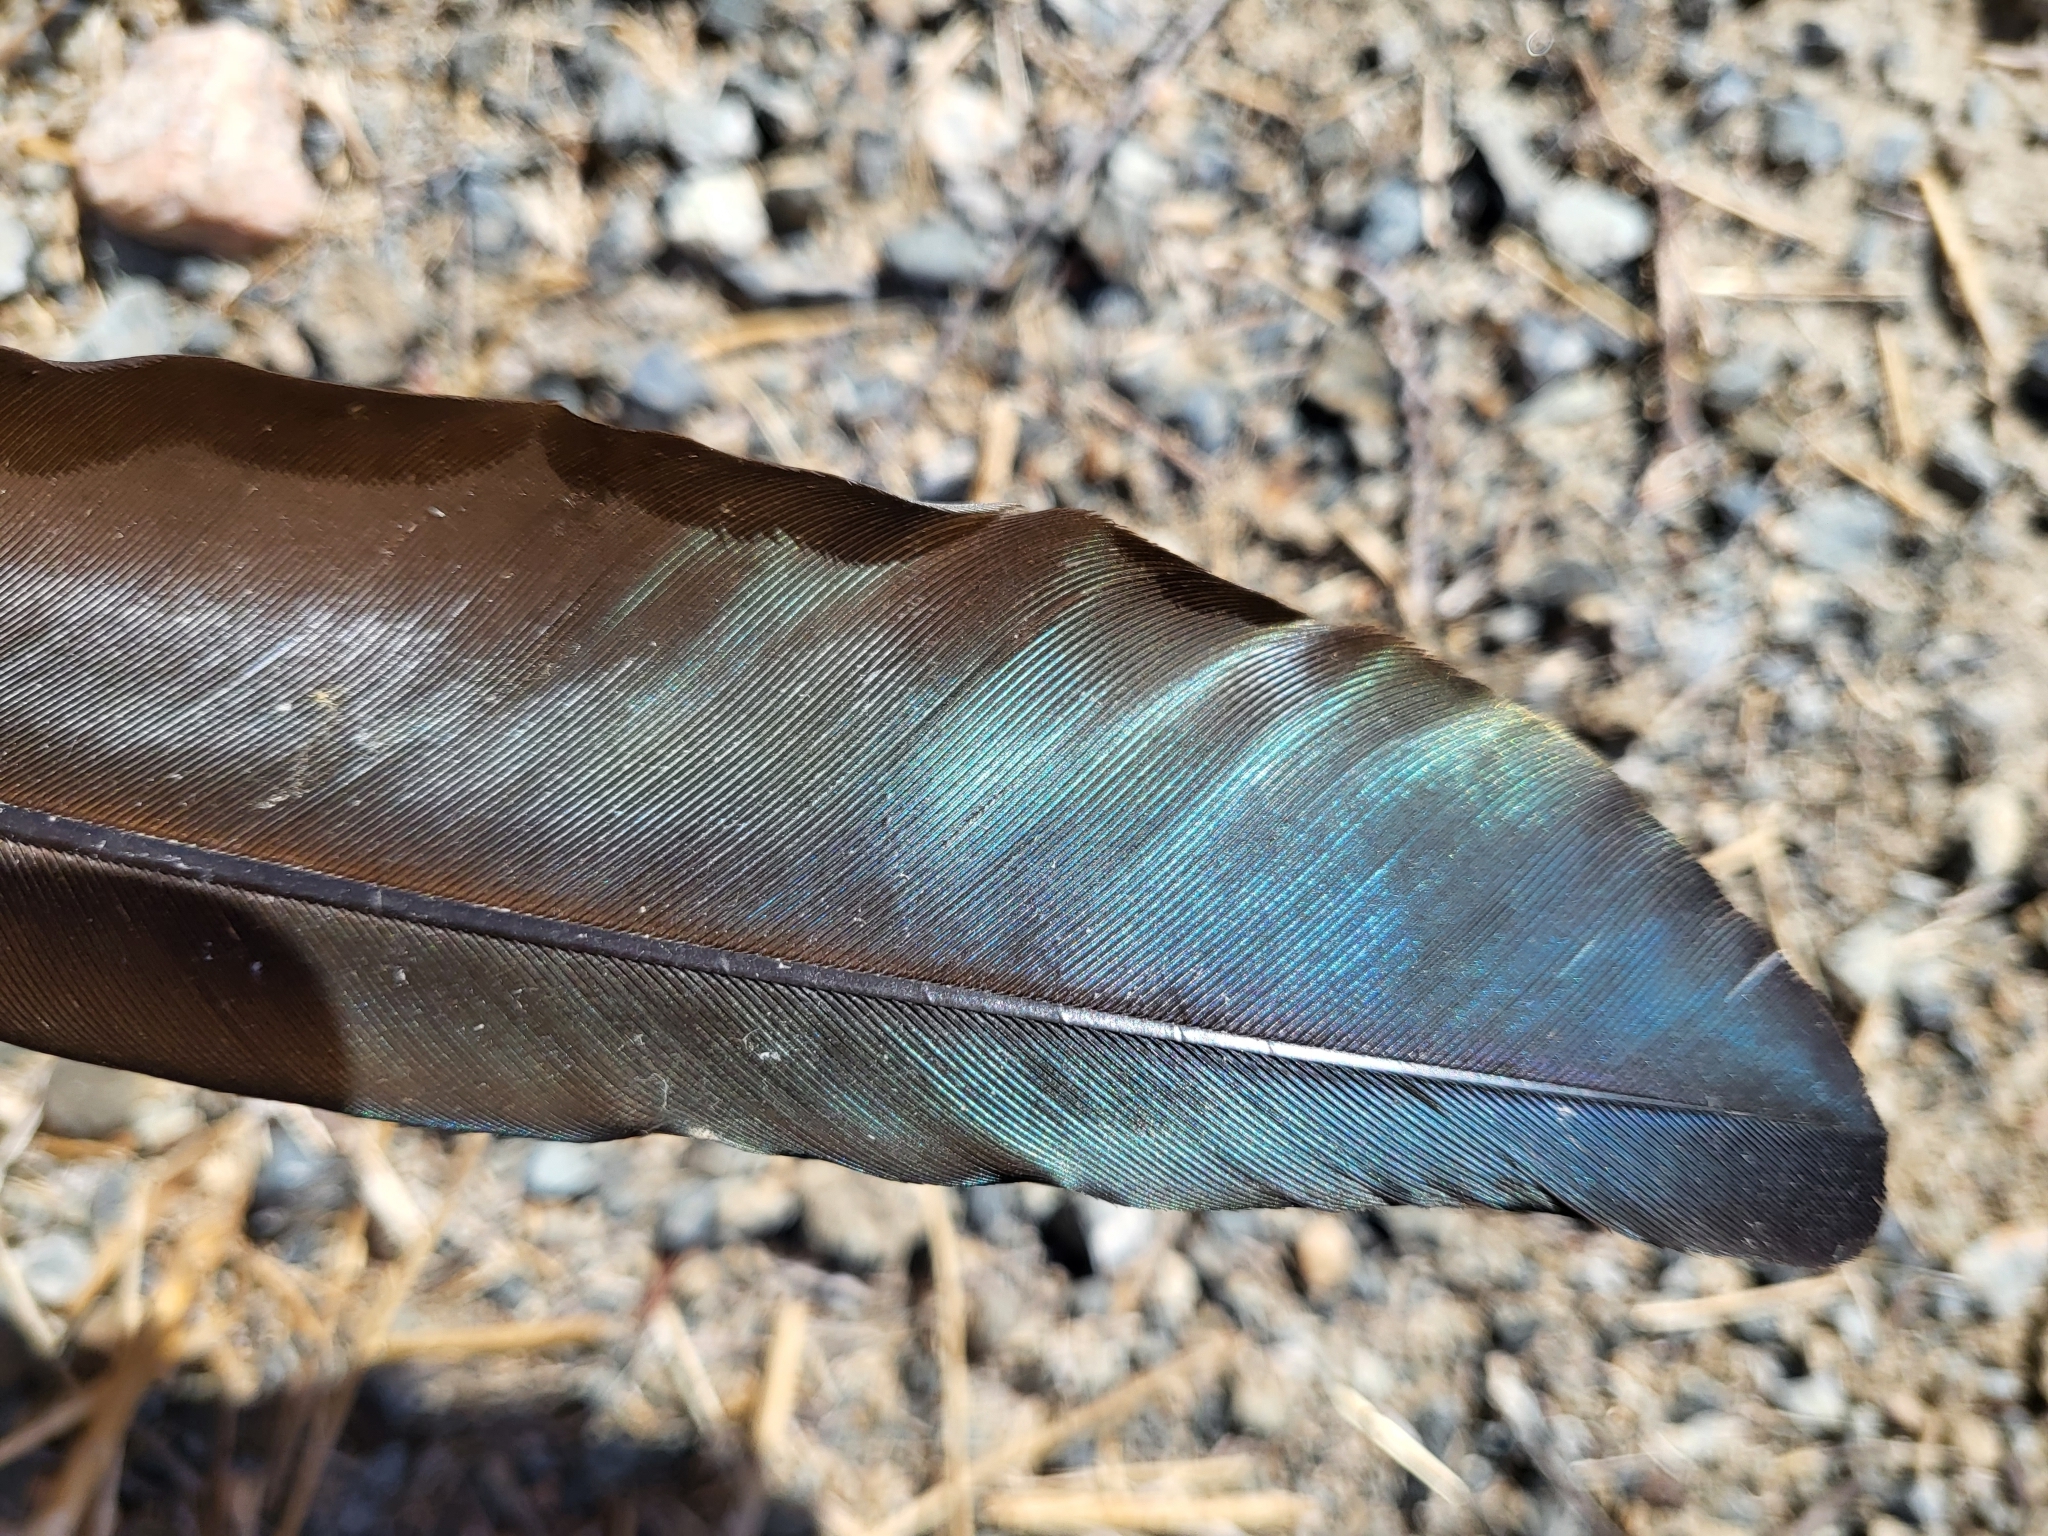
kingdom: Animalia
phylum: Chordata
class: Aves
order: Pelecaniformes
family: Threskiornithidae
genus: Plegadis
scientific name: Plegadis chihi
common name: White-faced ibis
